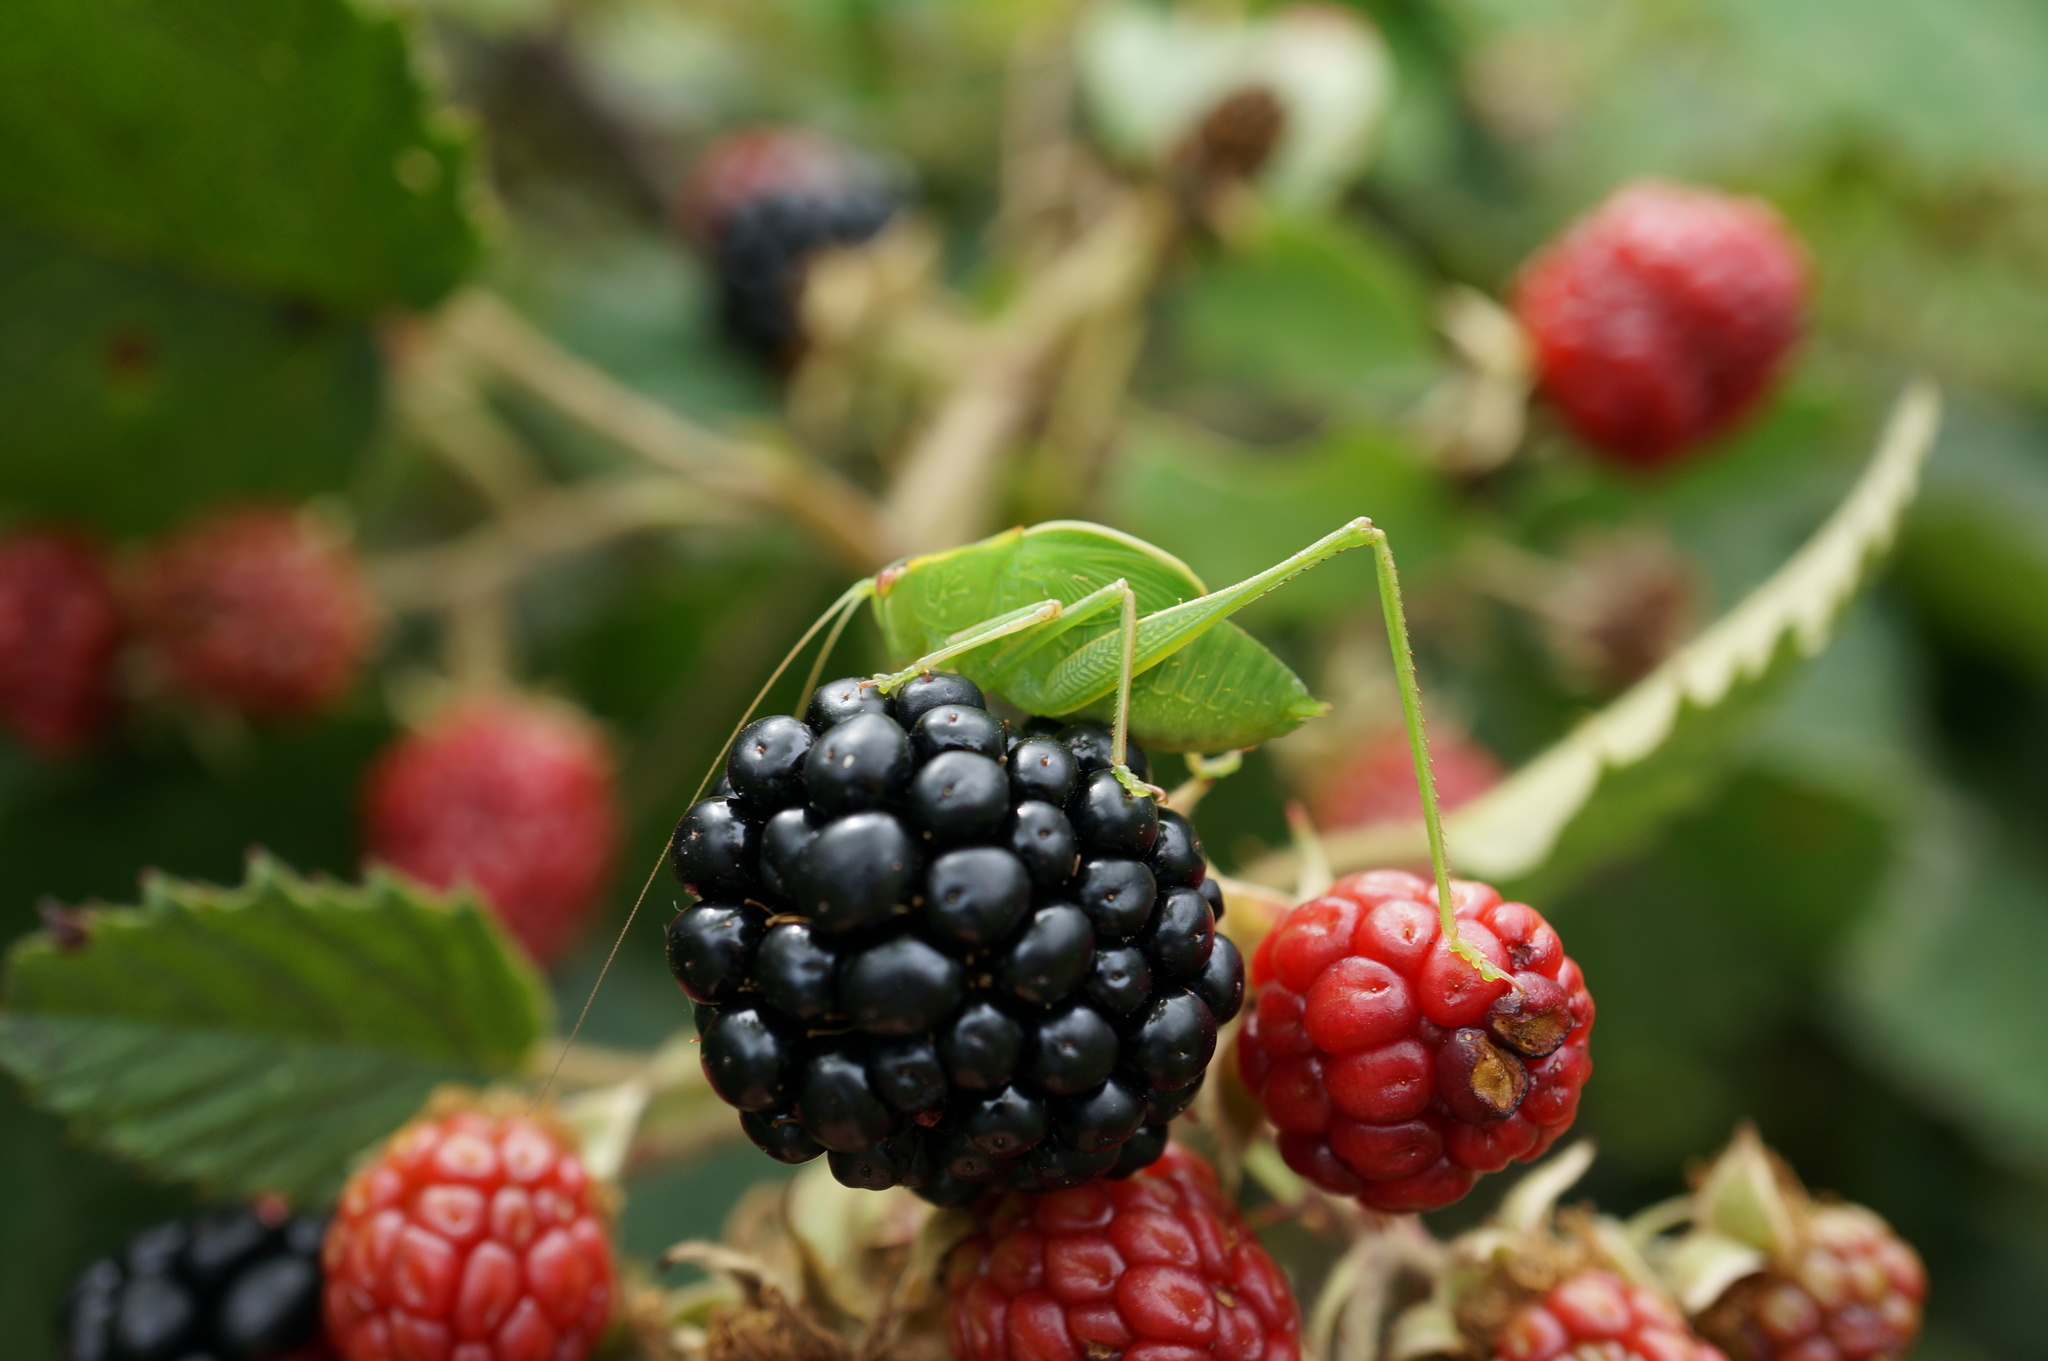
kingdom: Plantae
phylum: Tracheophyta
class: Magnoliopsida
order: Rosales
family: Rosaceae
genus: Rubus
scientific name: Rubus
